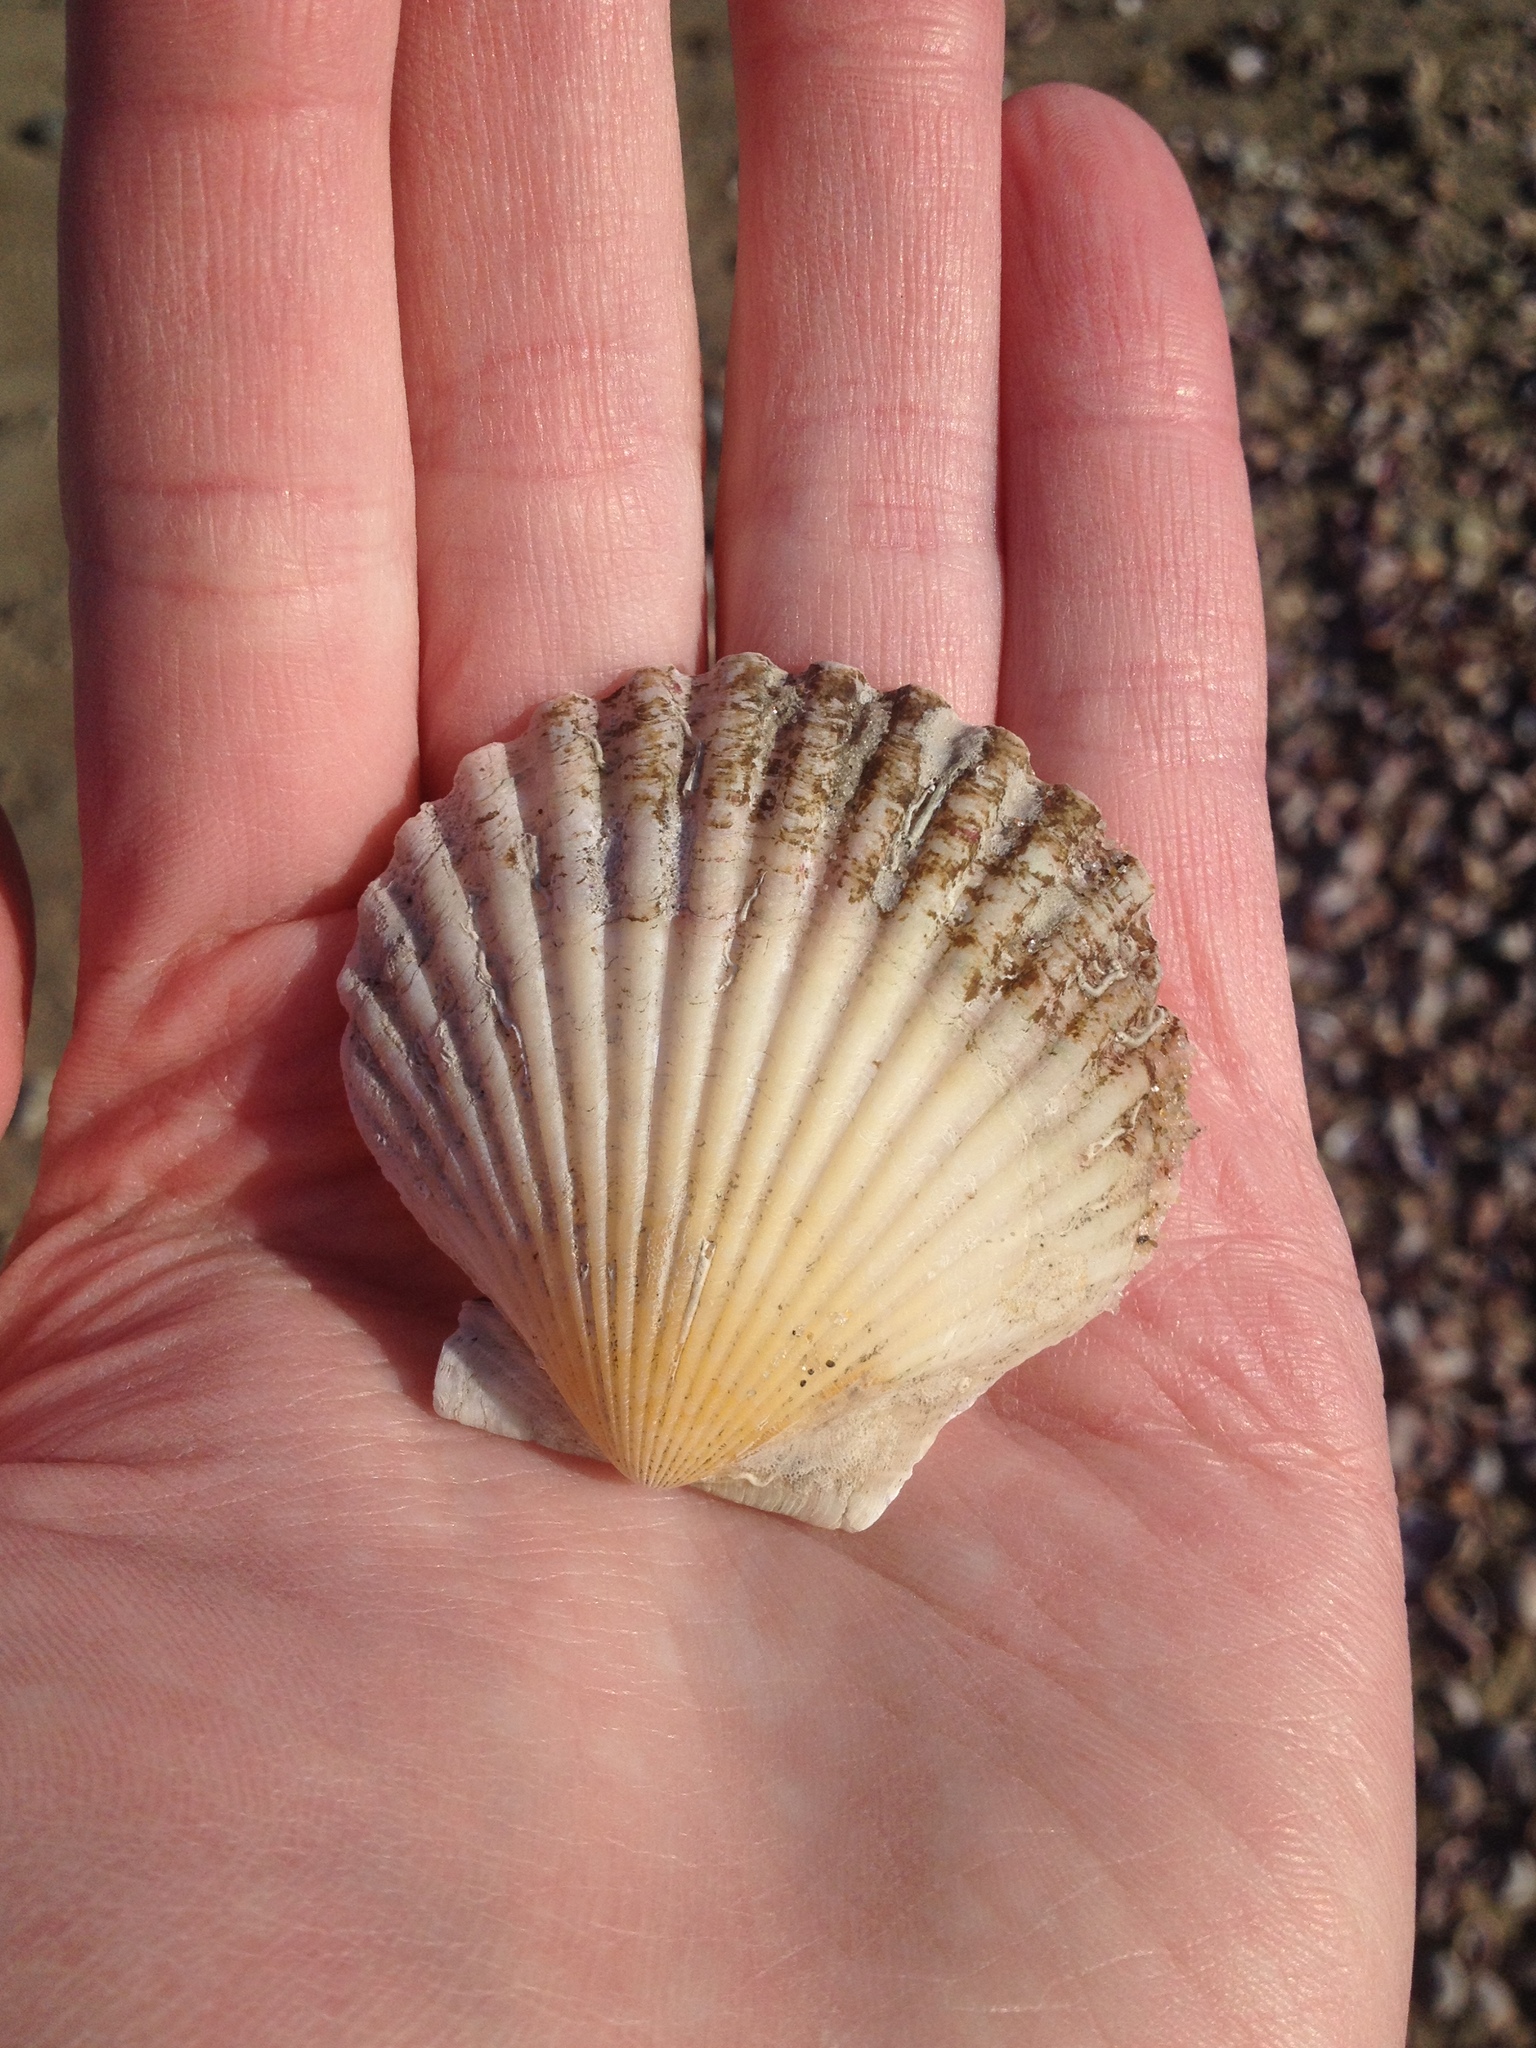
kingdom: Animalia
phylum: Mollusca
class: Bivalvia
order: Pectinida
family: Pectinidae
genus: Argopecten
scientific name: Argopecten irradians
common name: Atlantic bay scallop
